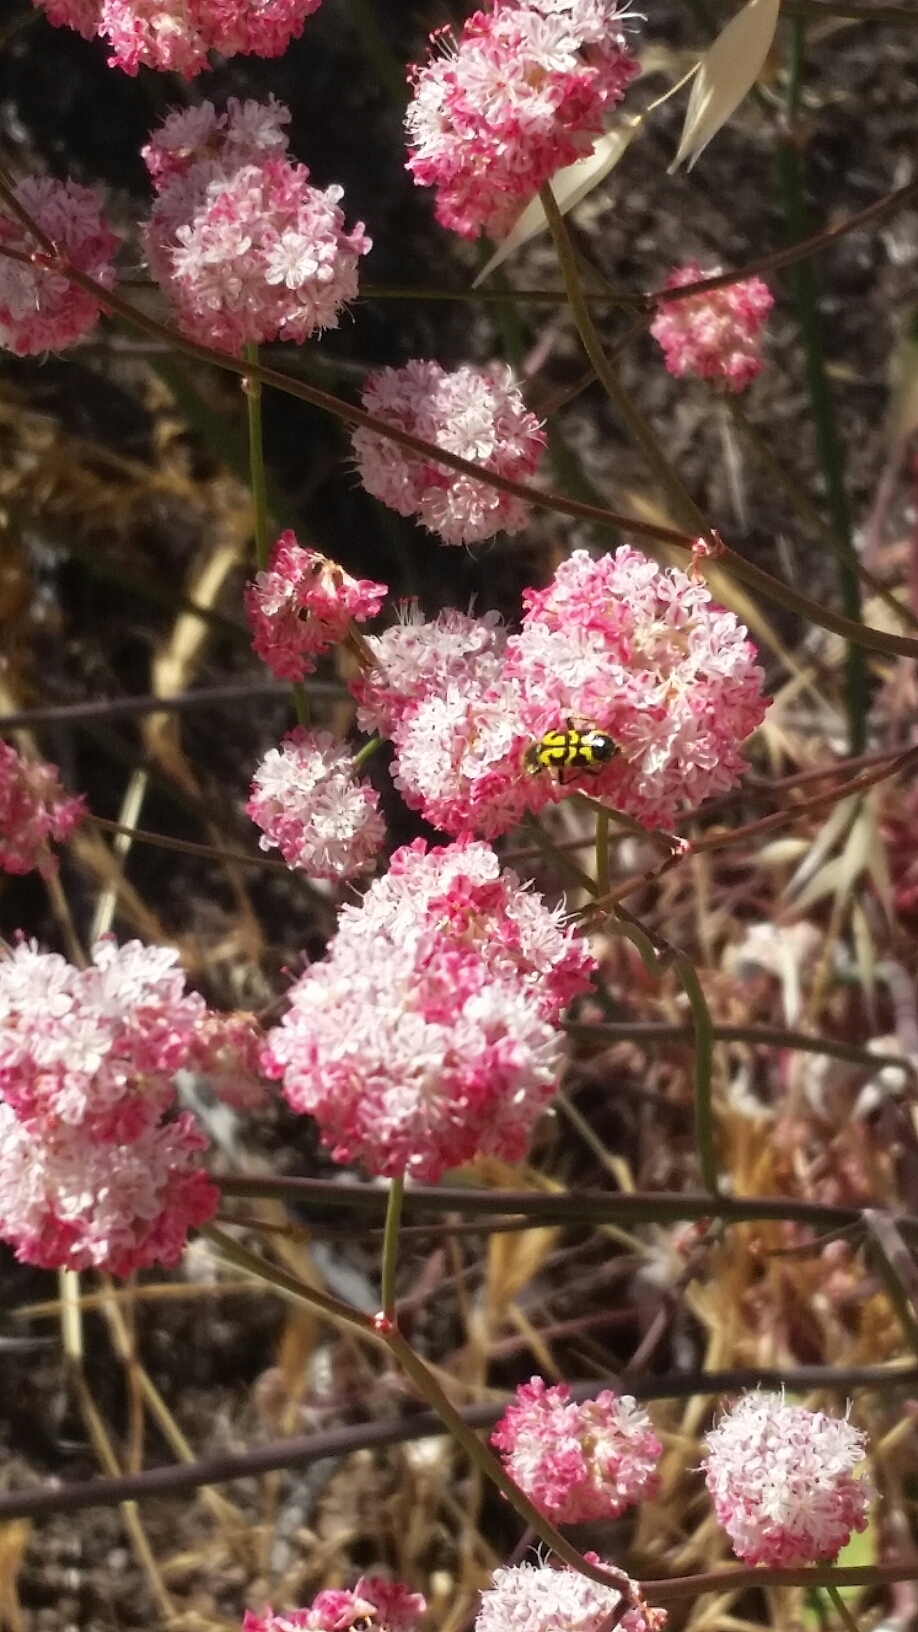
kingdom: Plantae
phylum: Tracheophyta
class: Magnoliopsida
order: Caryophyllales
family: Polygonaceae
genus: Eriogonum
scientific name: Eriogonum nudum
